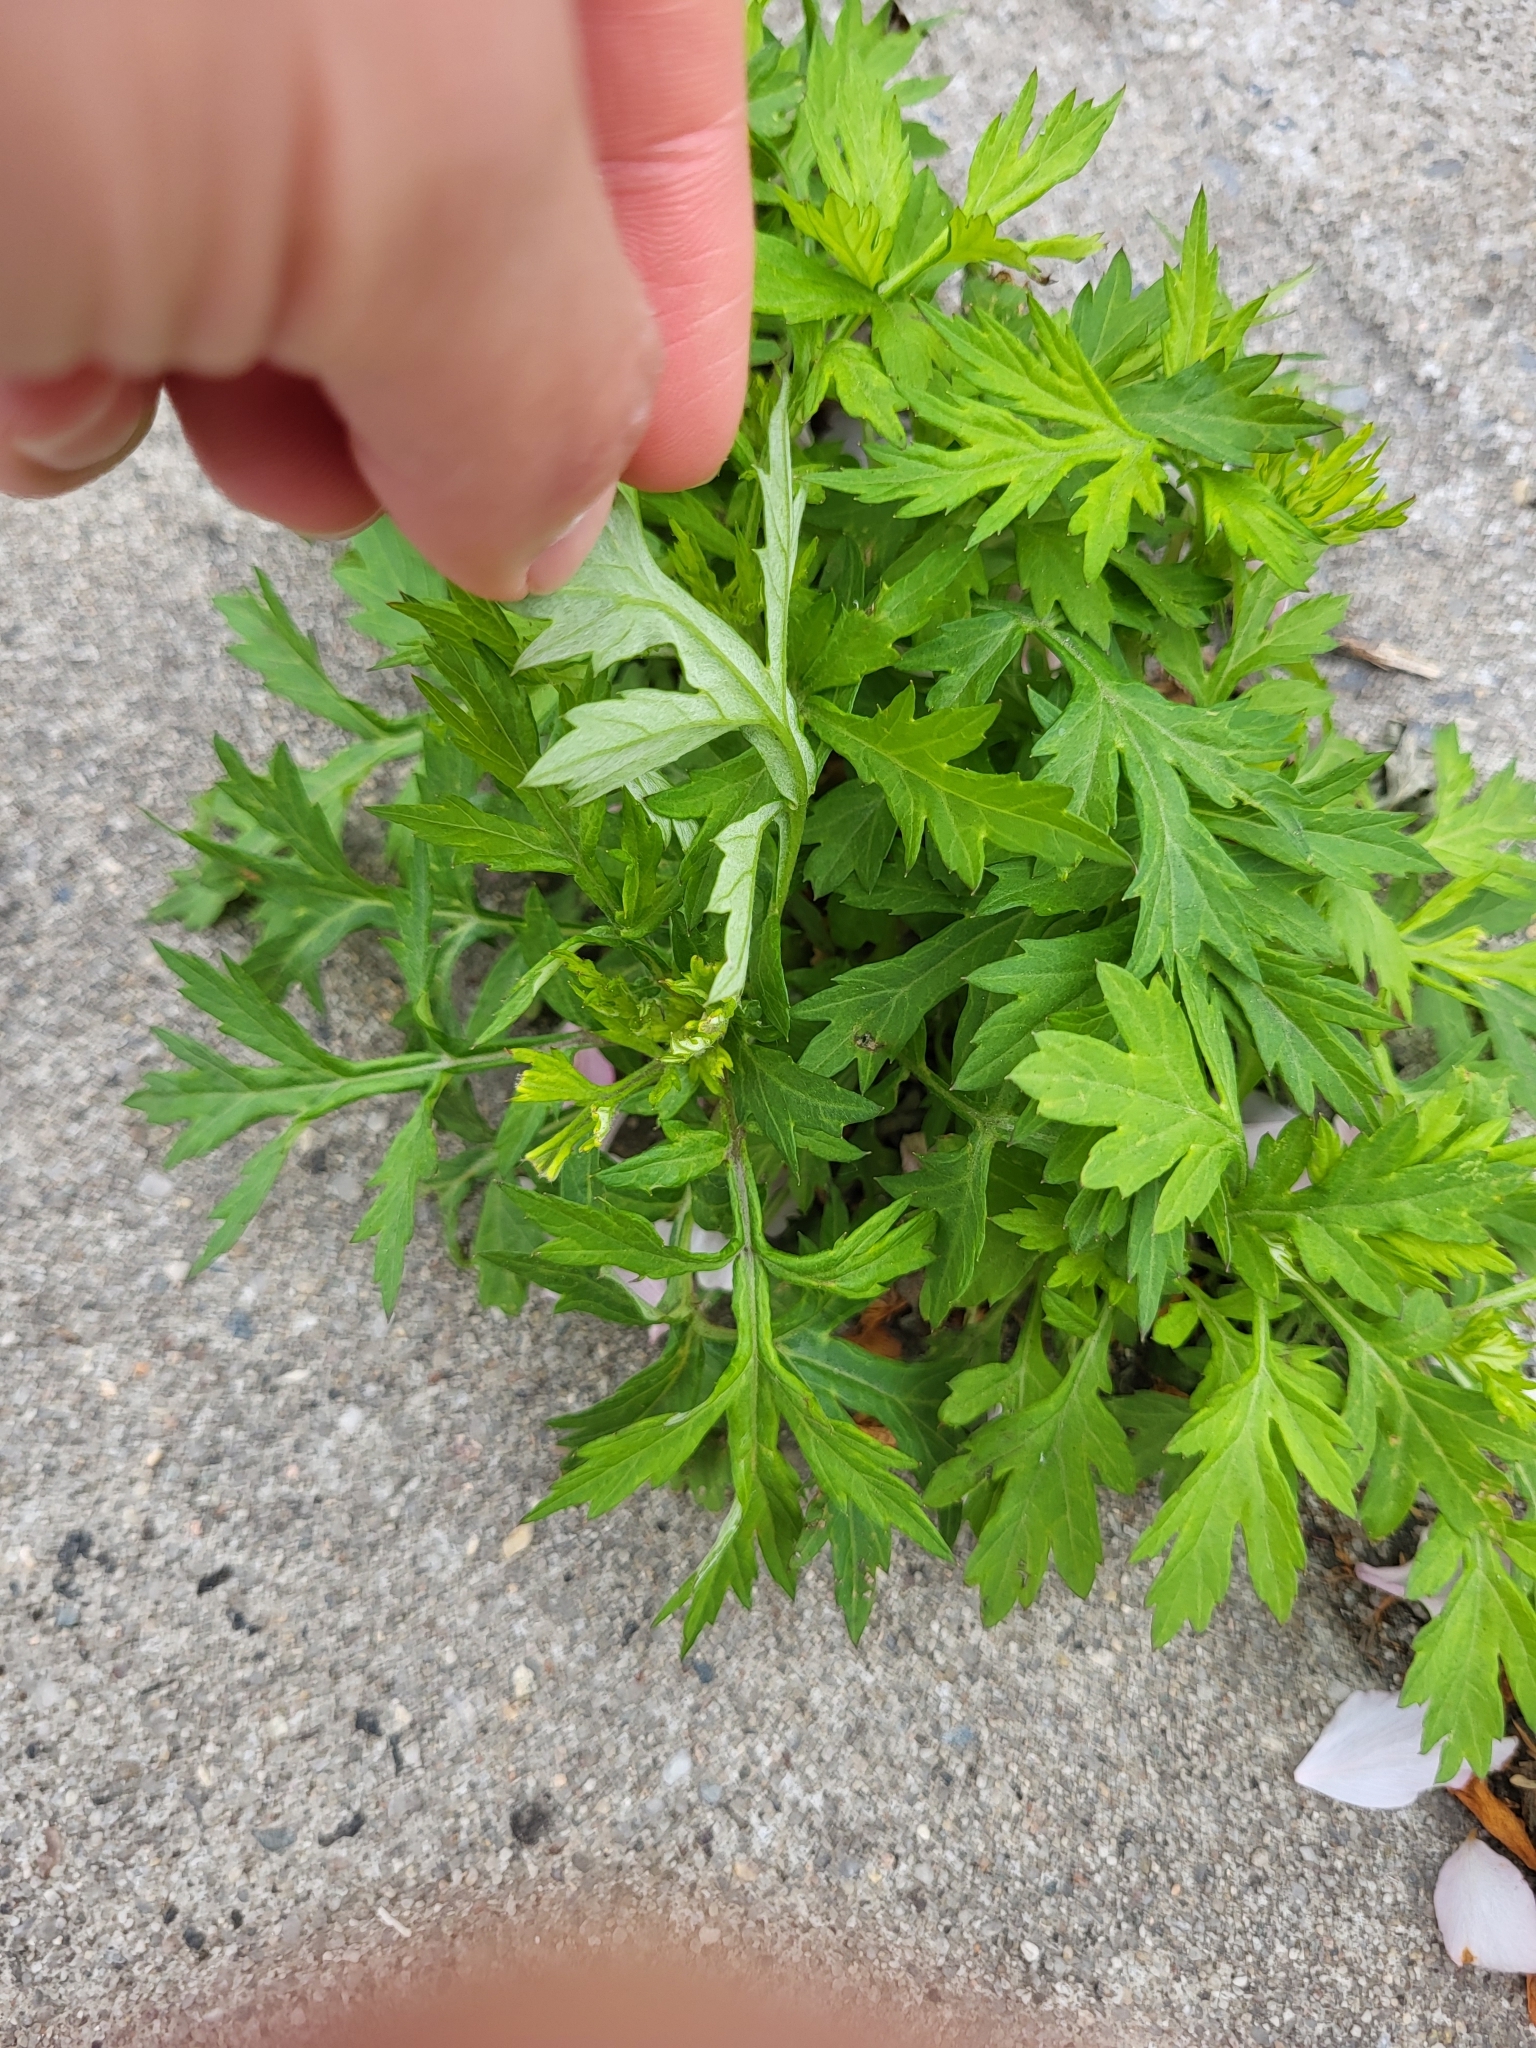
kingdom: Plantae
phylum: Tracheophyta
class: Magnoliopsida
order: Asterales
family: Asteraceae
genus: Artemisia
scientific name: Artemisia vulgaris
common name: Mugwort
